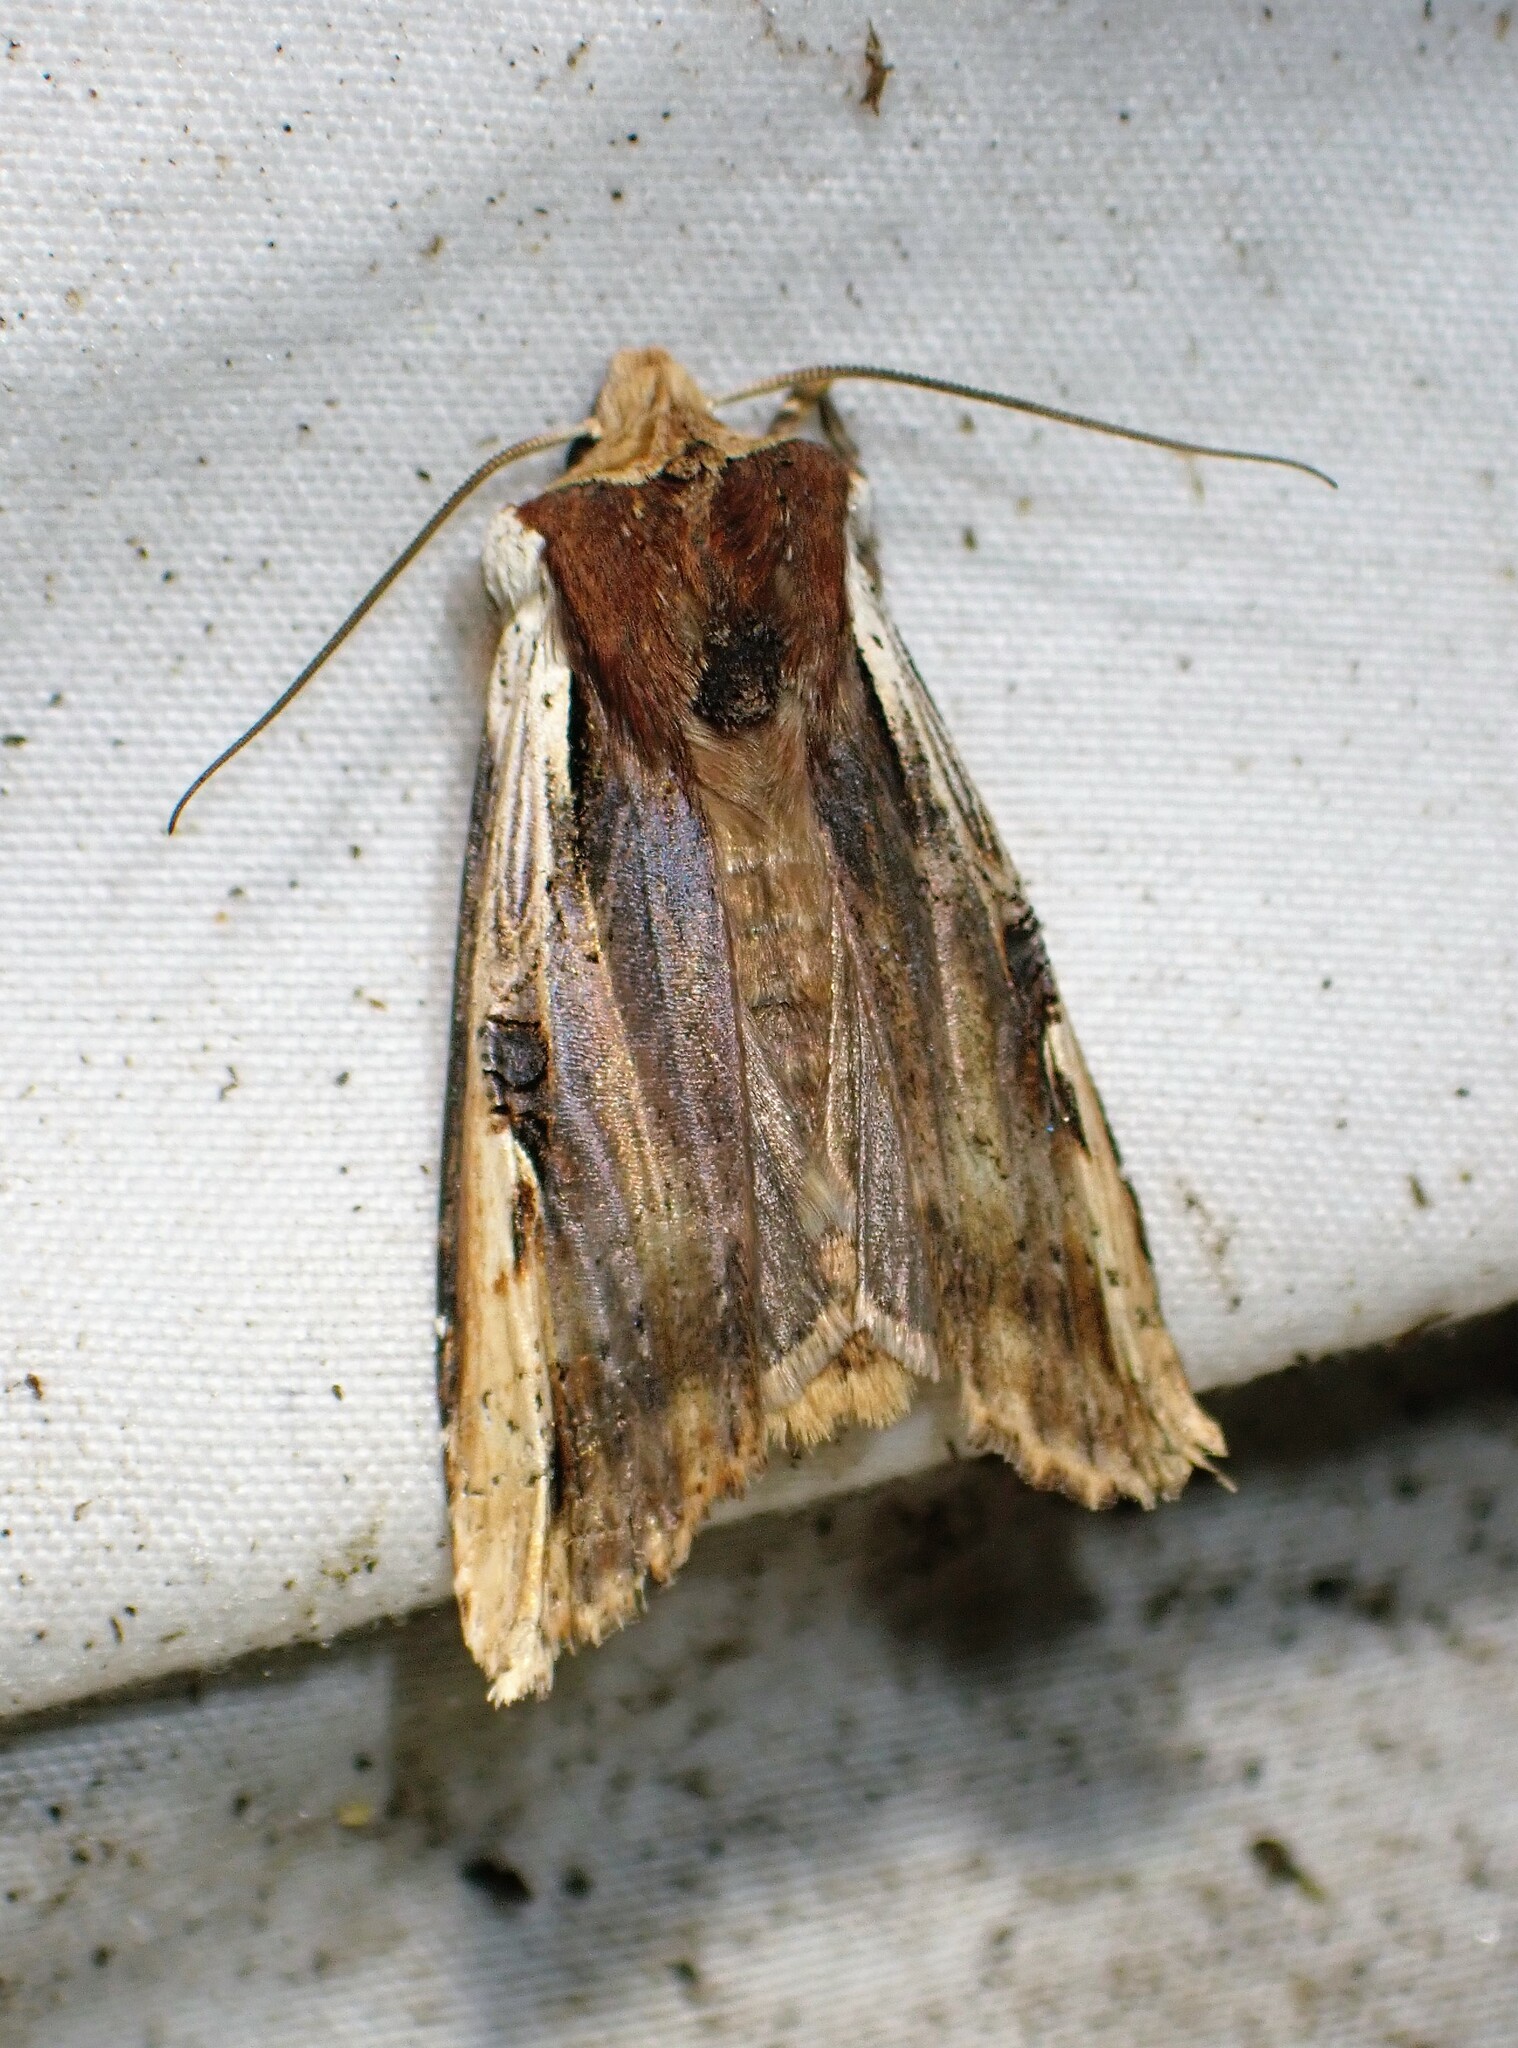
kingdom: Animalia
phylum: Arthropoda
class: Insecta
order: Lepidoptera
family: Noctuidae
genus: Xylena
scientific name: Xylena curvimacula
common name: Dot-and-dash swordgrass moth
